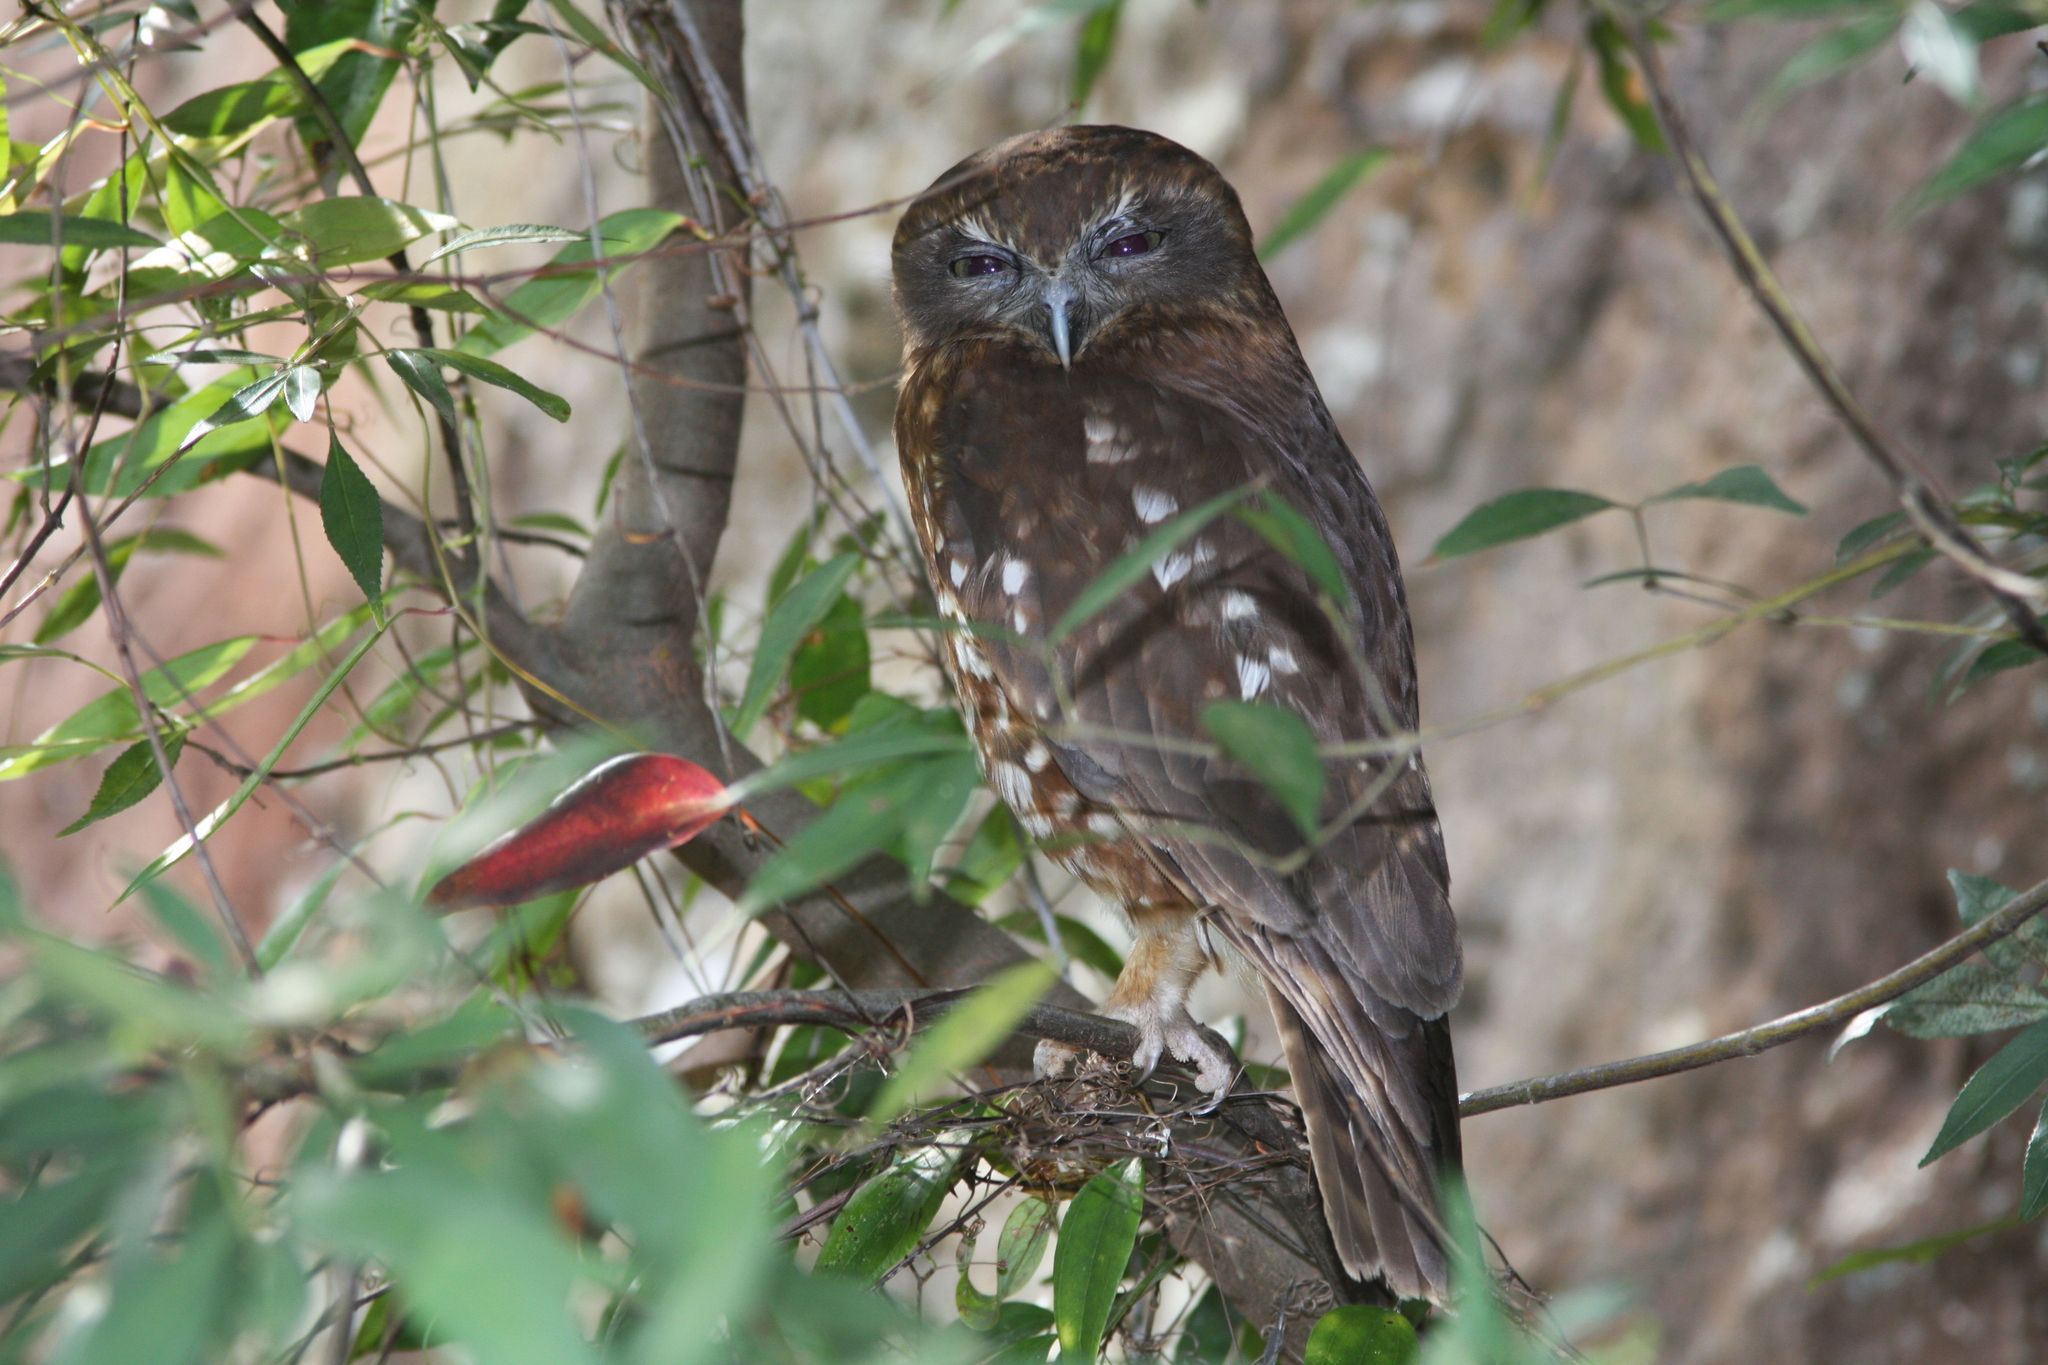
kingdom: Animalia
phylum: Chordata
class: Aves
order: Strigiformes
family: Strigidae
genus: Ninox
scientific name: Ninox boobook
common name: Southern boobook
